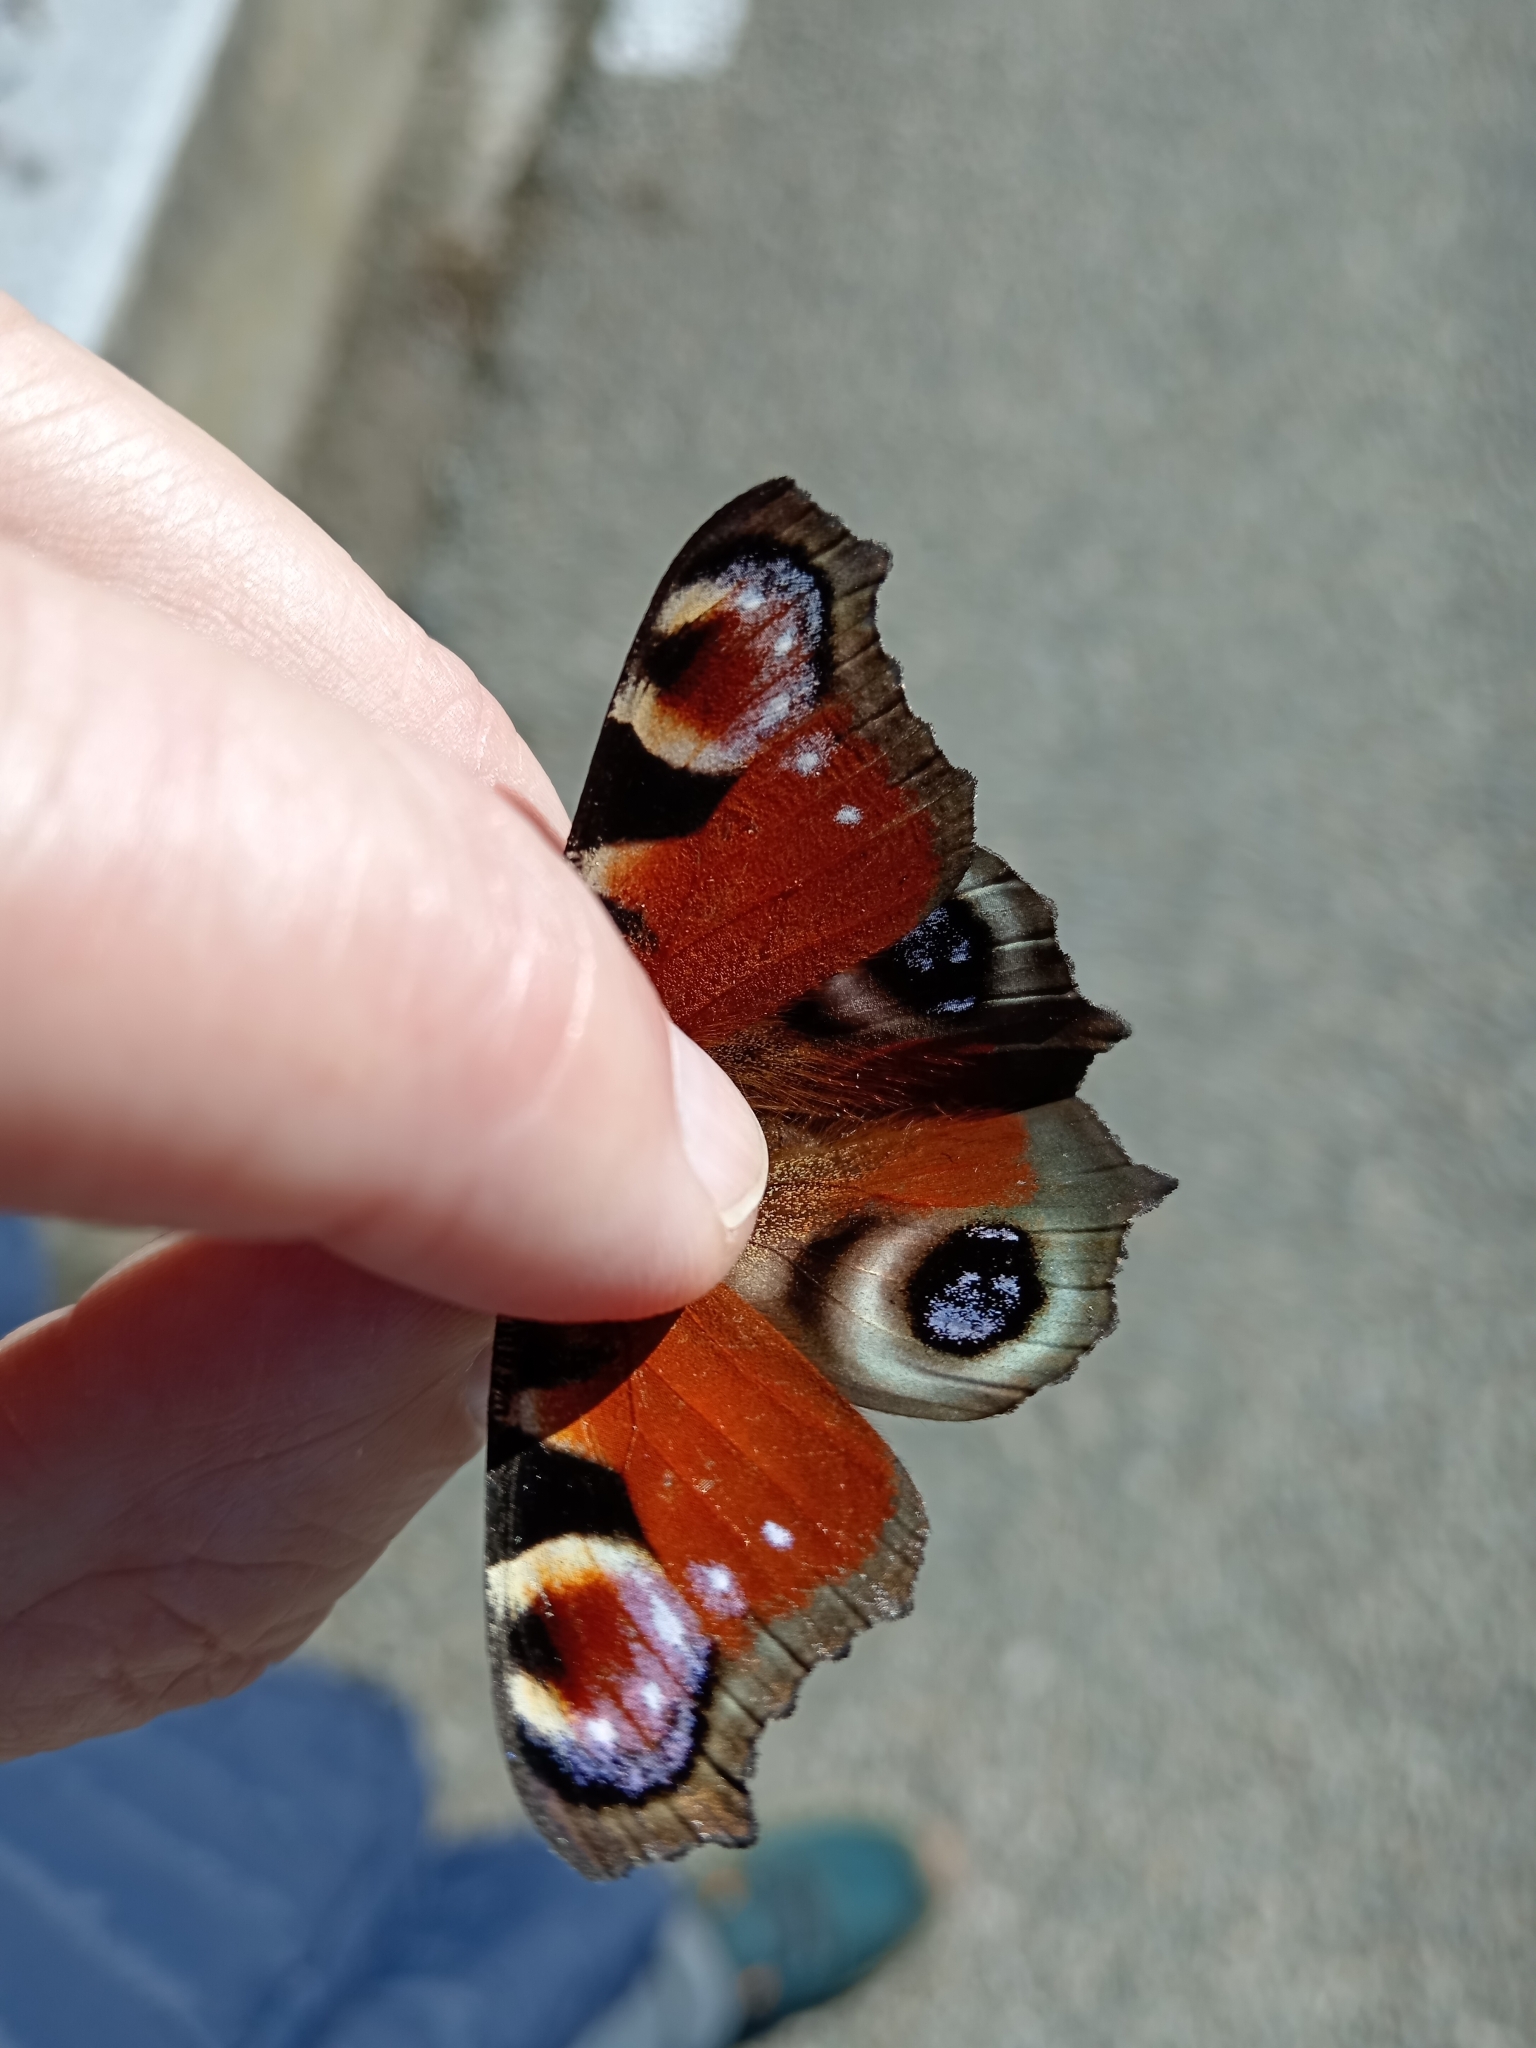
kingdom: Animalia
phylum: Arthropoda
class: Insecta
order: Lepidoptera
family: Nymphalidae
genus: Aglais
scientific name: Aglais io
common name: Peacock
